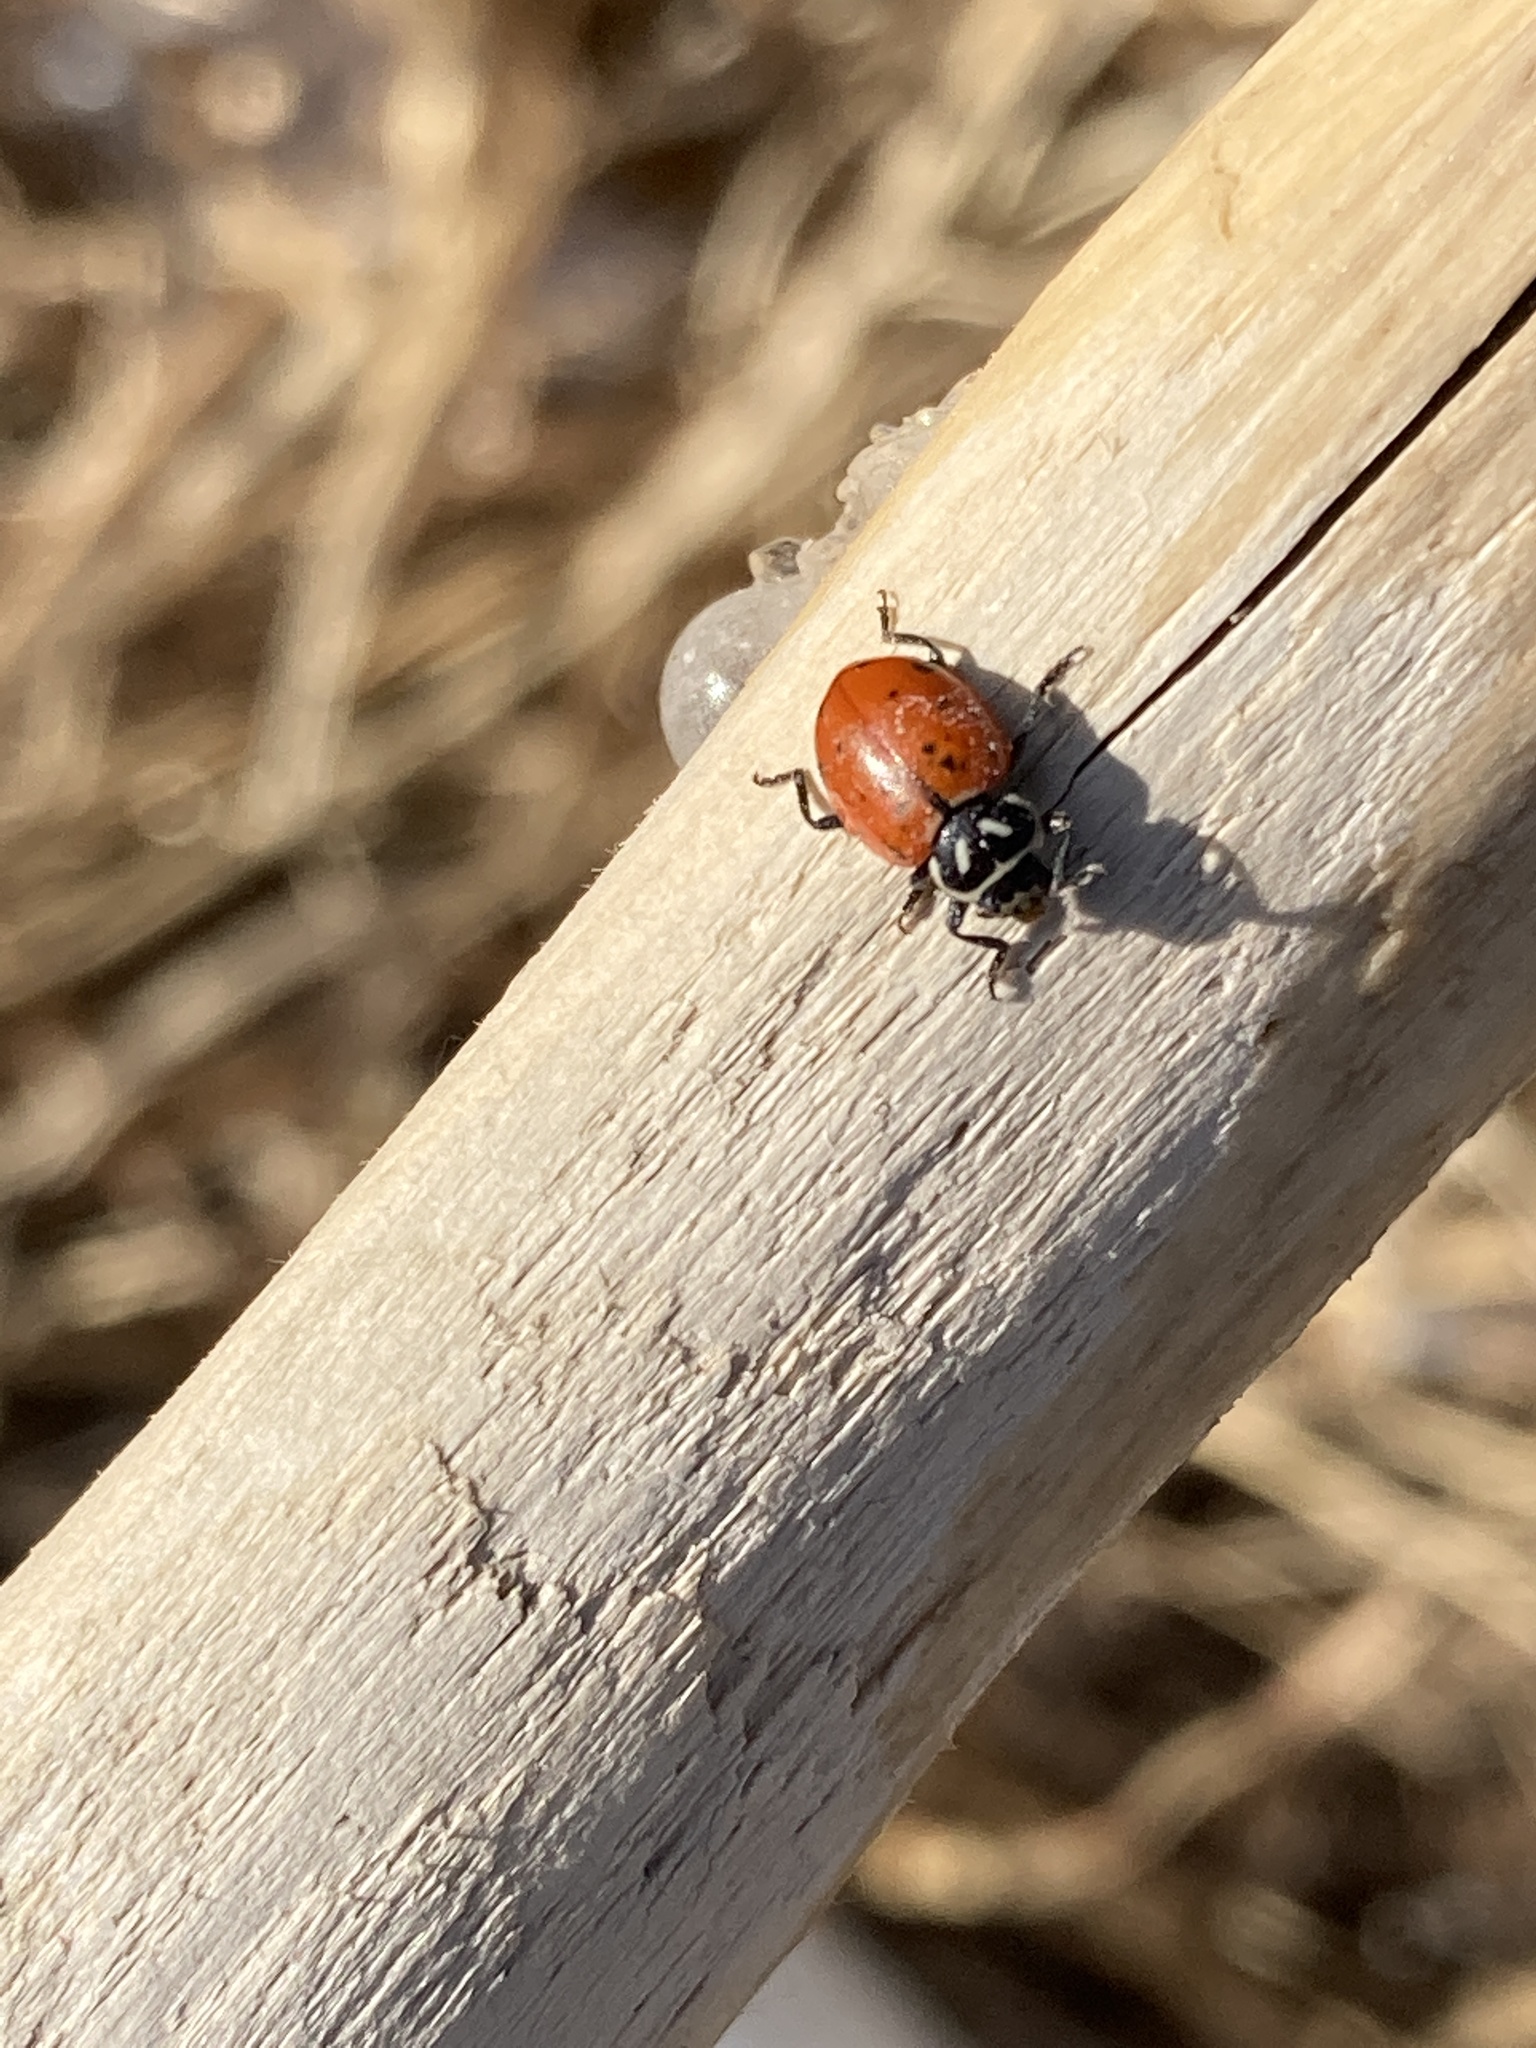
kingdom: Animalia
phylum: Arthropoda
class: Insecta
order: Coleoptera
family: Coccinellidae
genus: Hippodamia
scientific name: Hippodamia convergens
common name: Convergent lady beetle
